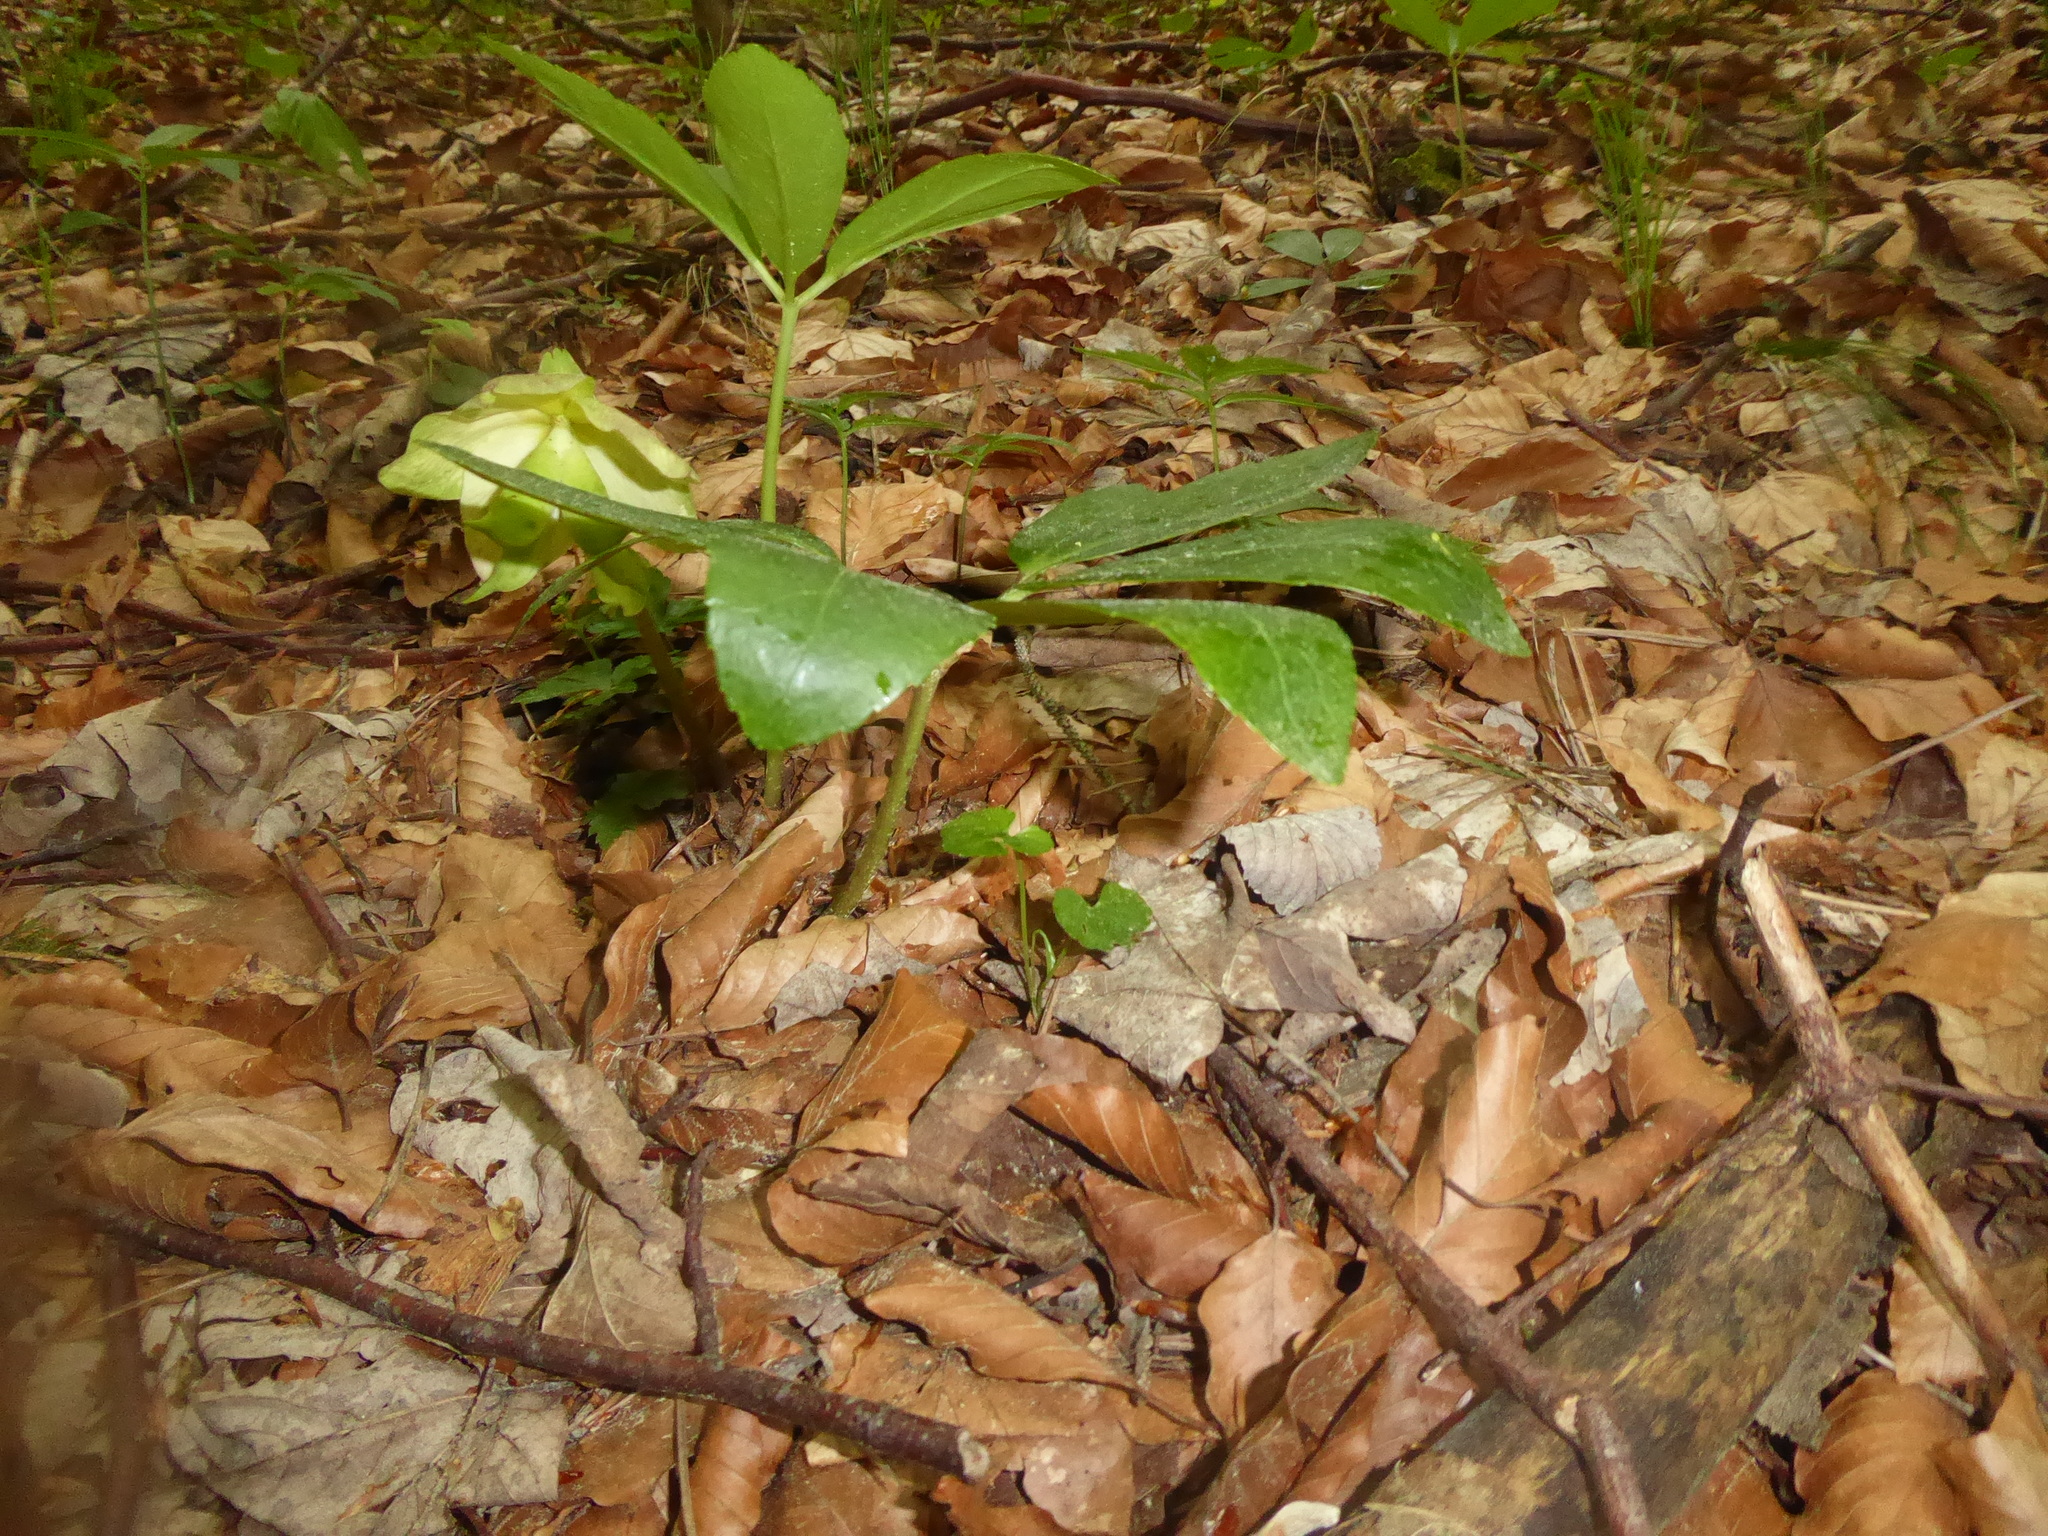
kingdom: Plantae
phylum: Tracheophyta
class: Magnoliopsida
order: Ranunculales
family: Ranunculaceae
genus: Helleborus
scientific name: Helleborus niger
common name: Black hellebore
